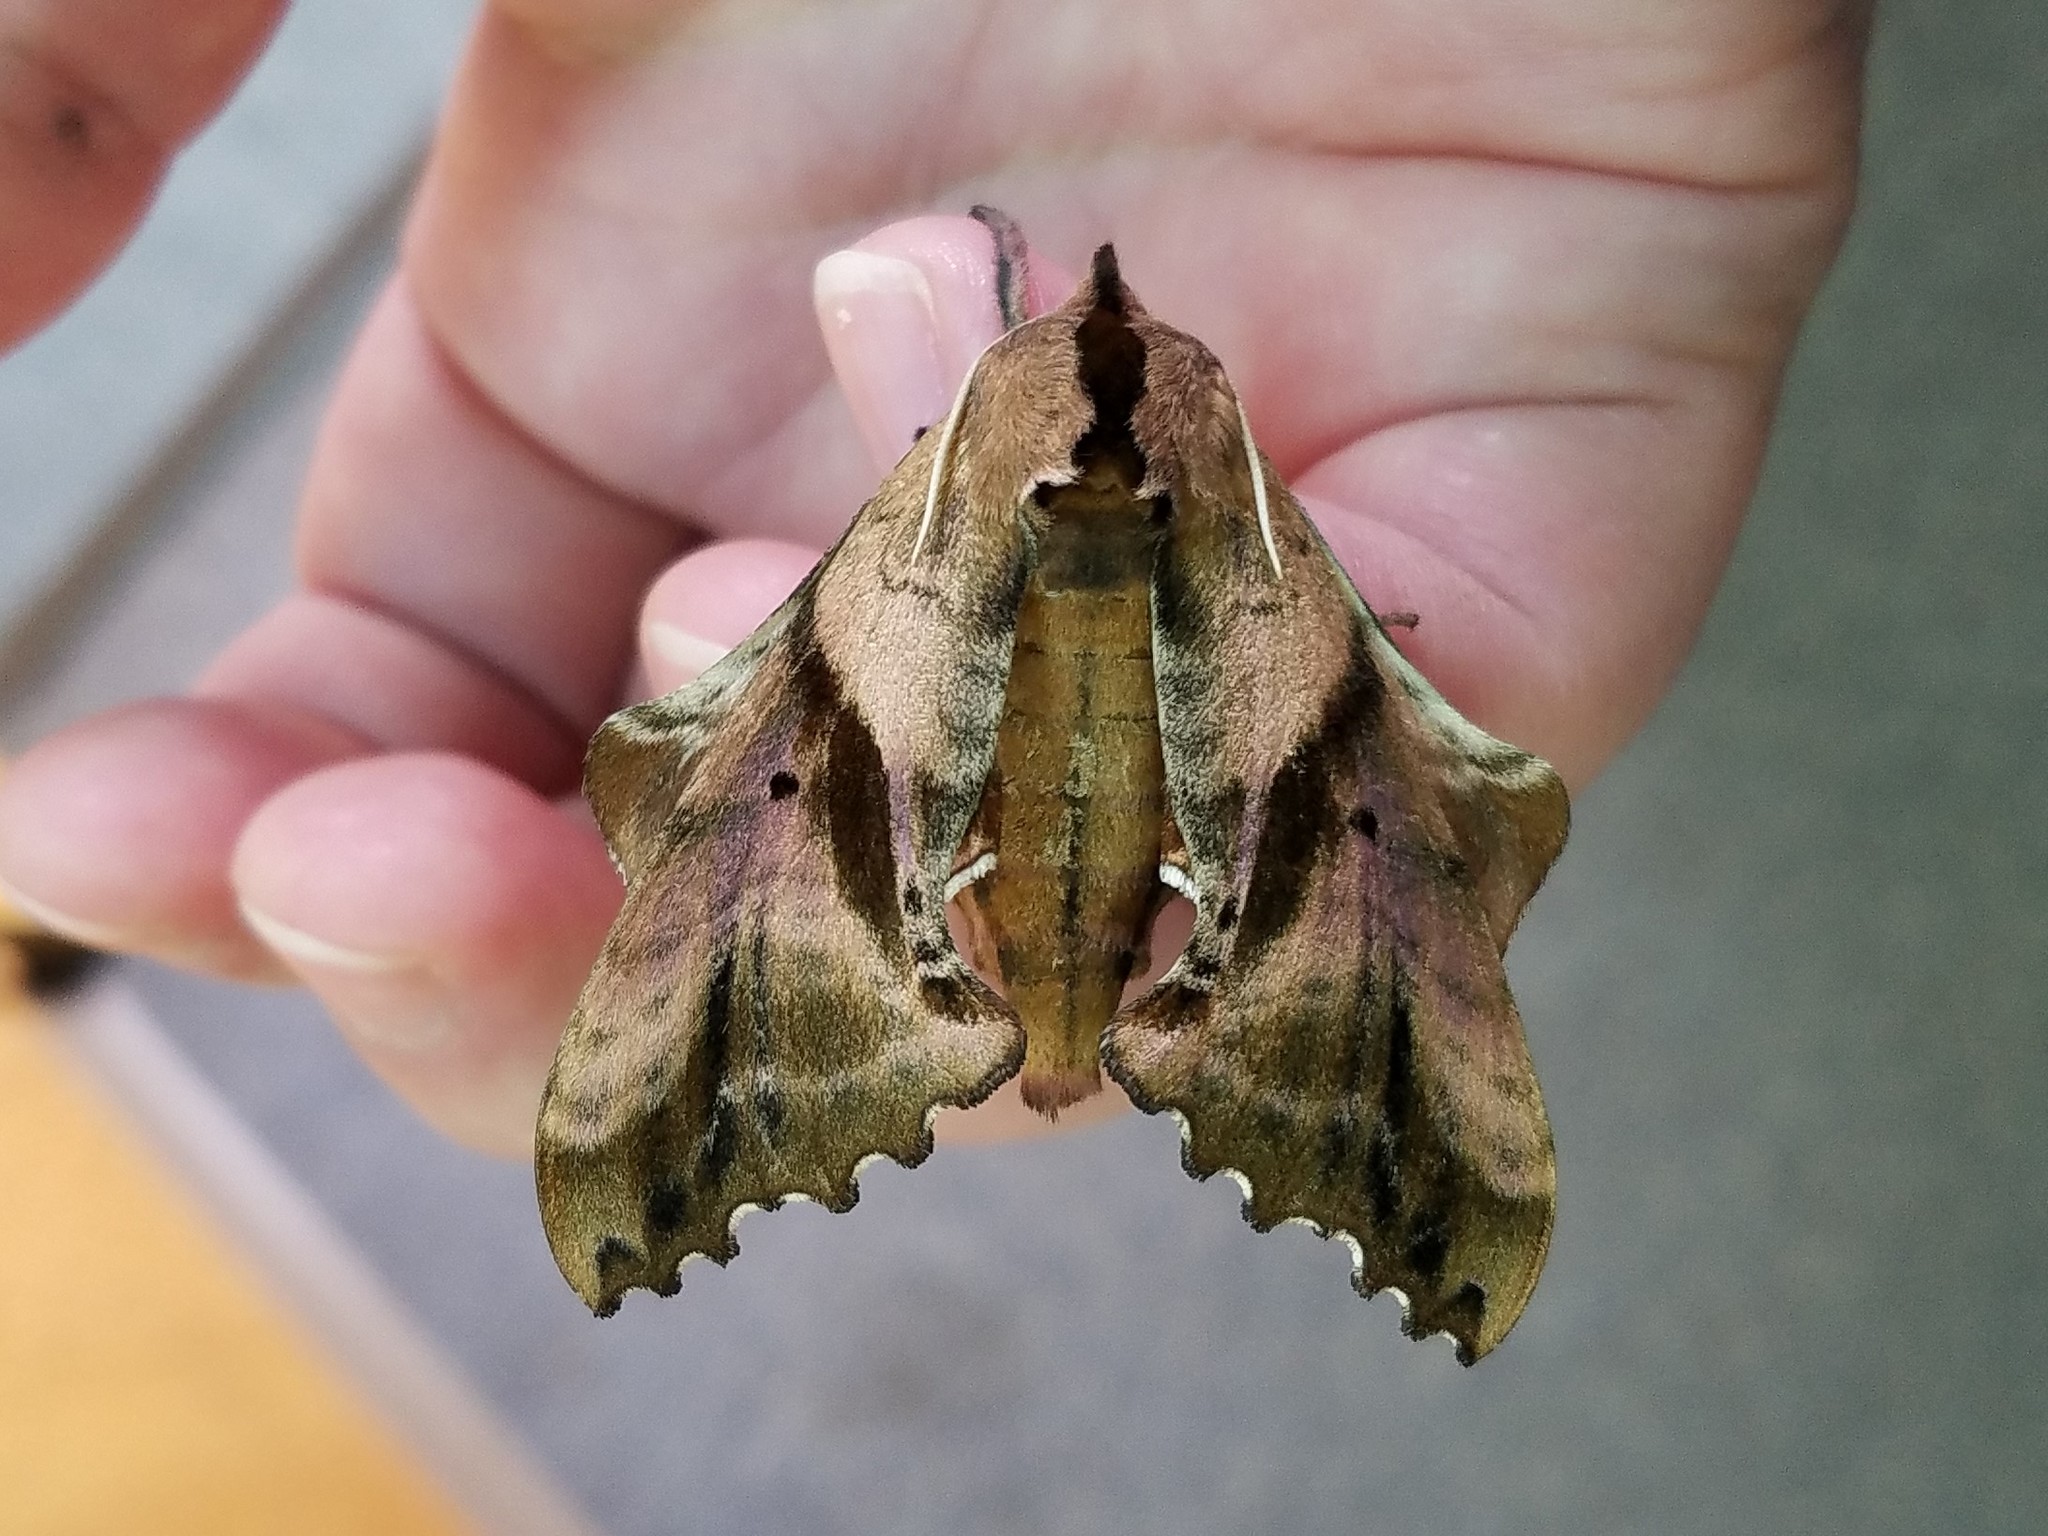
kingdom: Animalia
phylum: Arthropoda
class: Insecta
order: Lepidoptera
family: Sphingidae
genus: Paonias
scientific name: Paonias excaecata
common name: Blind-eyed sphinx
